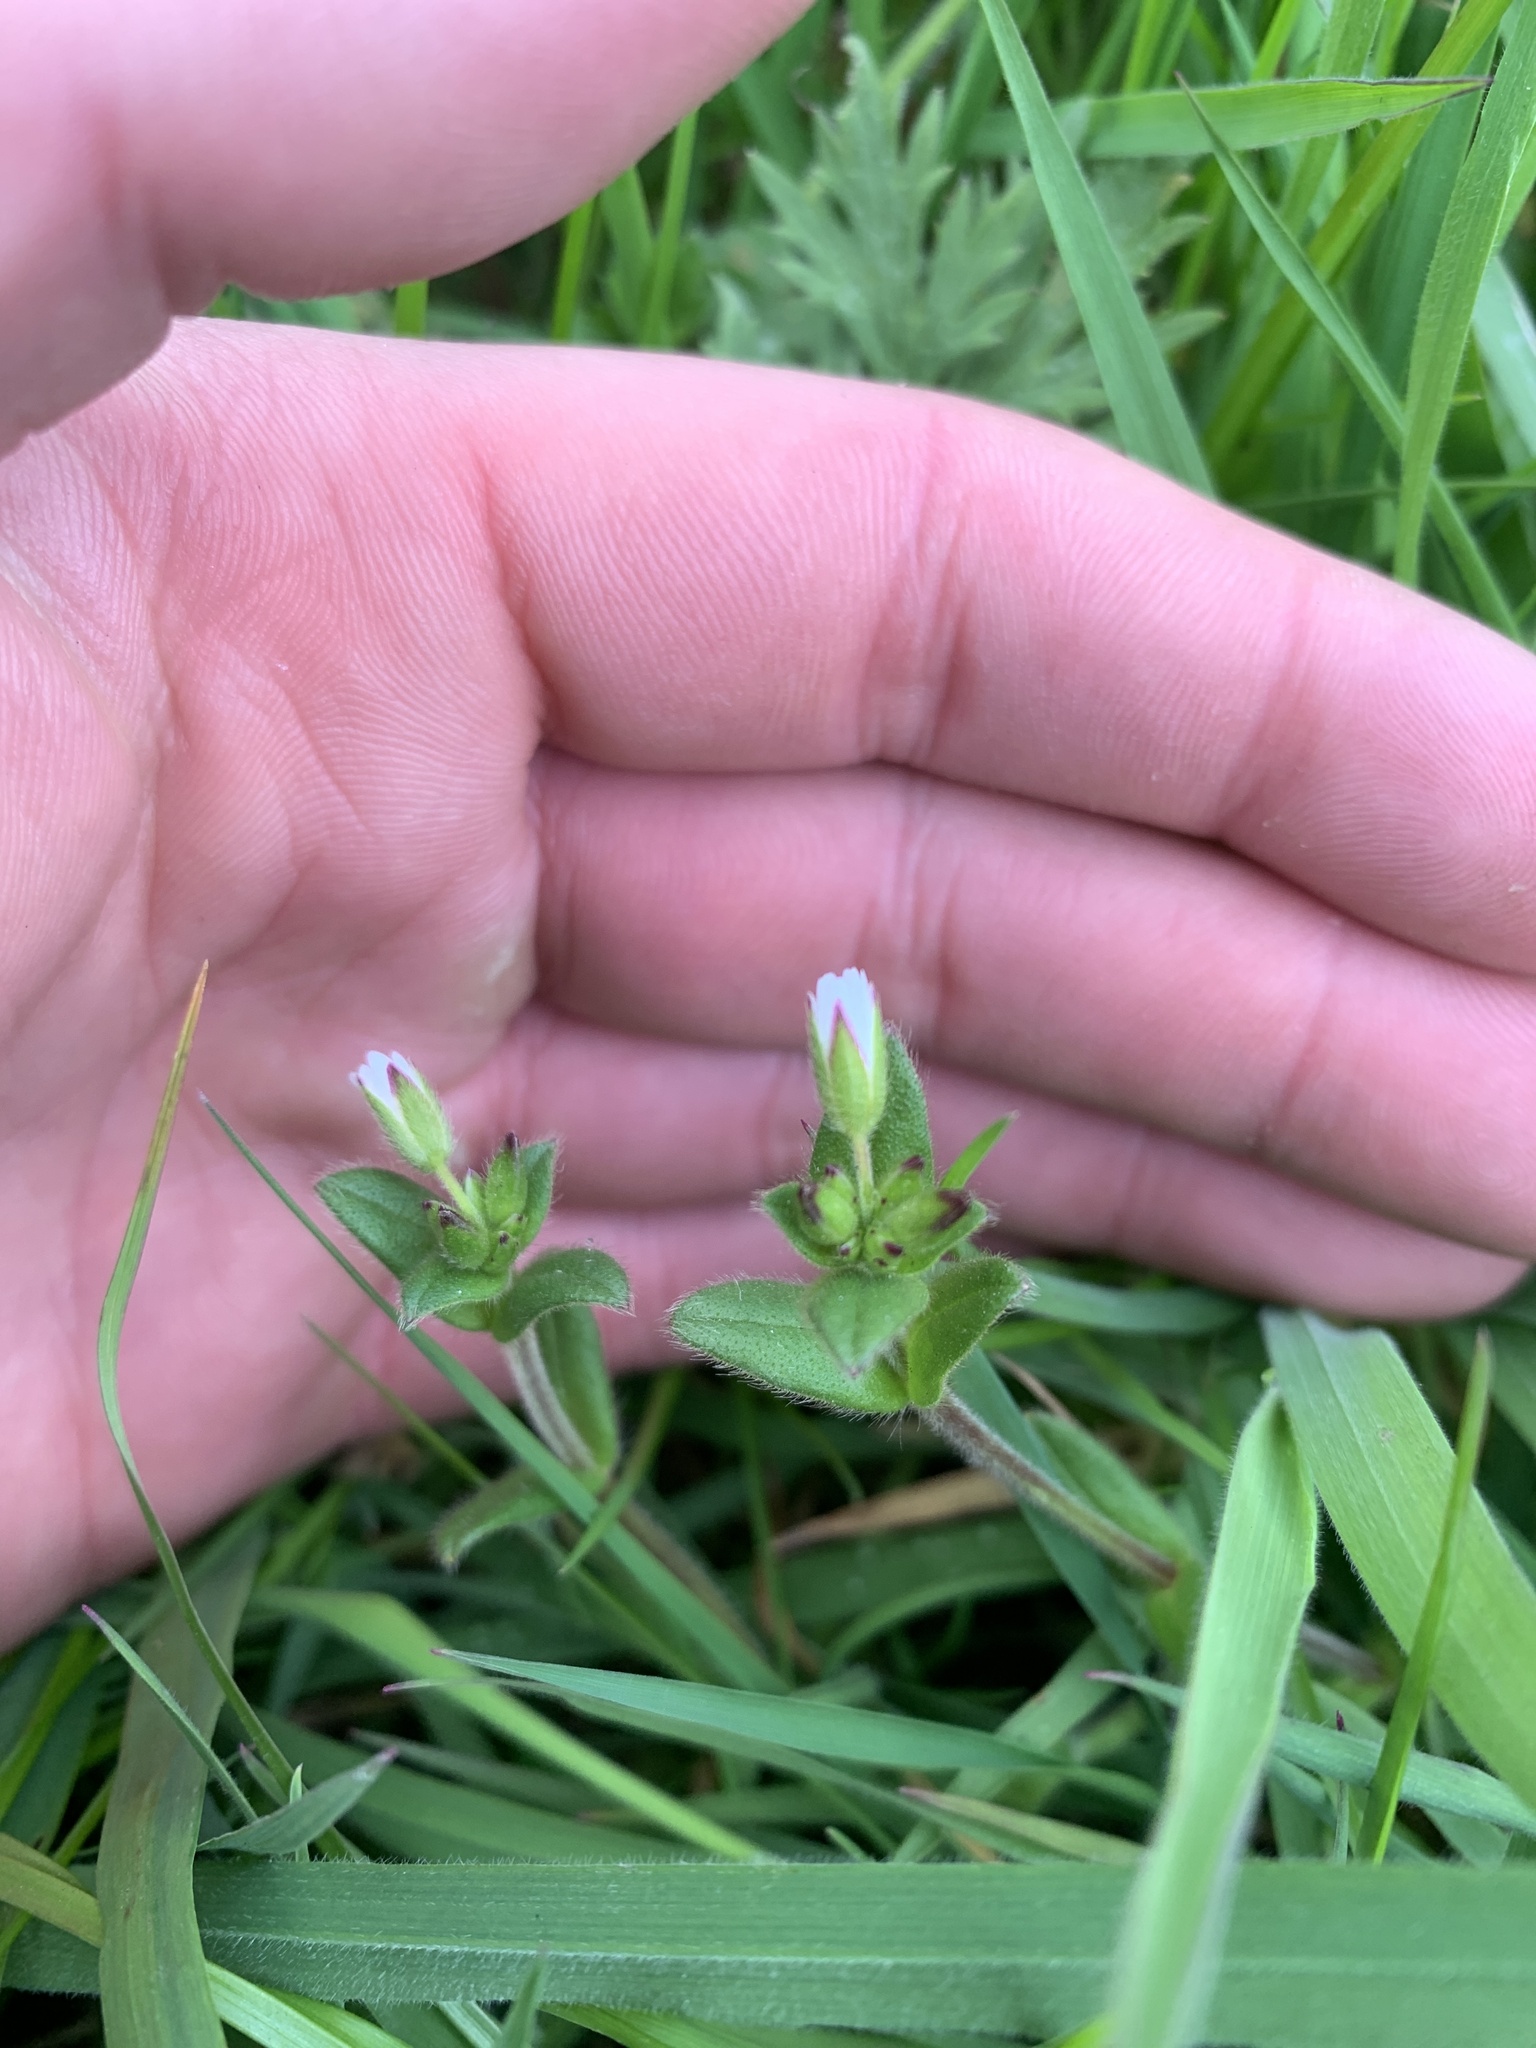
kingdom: Plantae
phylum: Tracheophyta
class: Magnoliopsida
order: Caryophyllales
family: Caryophyllaceae
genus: Cerastium
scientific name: Cerastium fontanum
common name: Common mouse-ear
